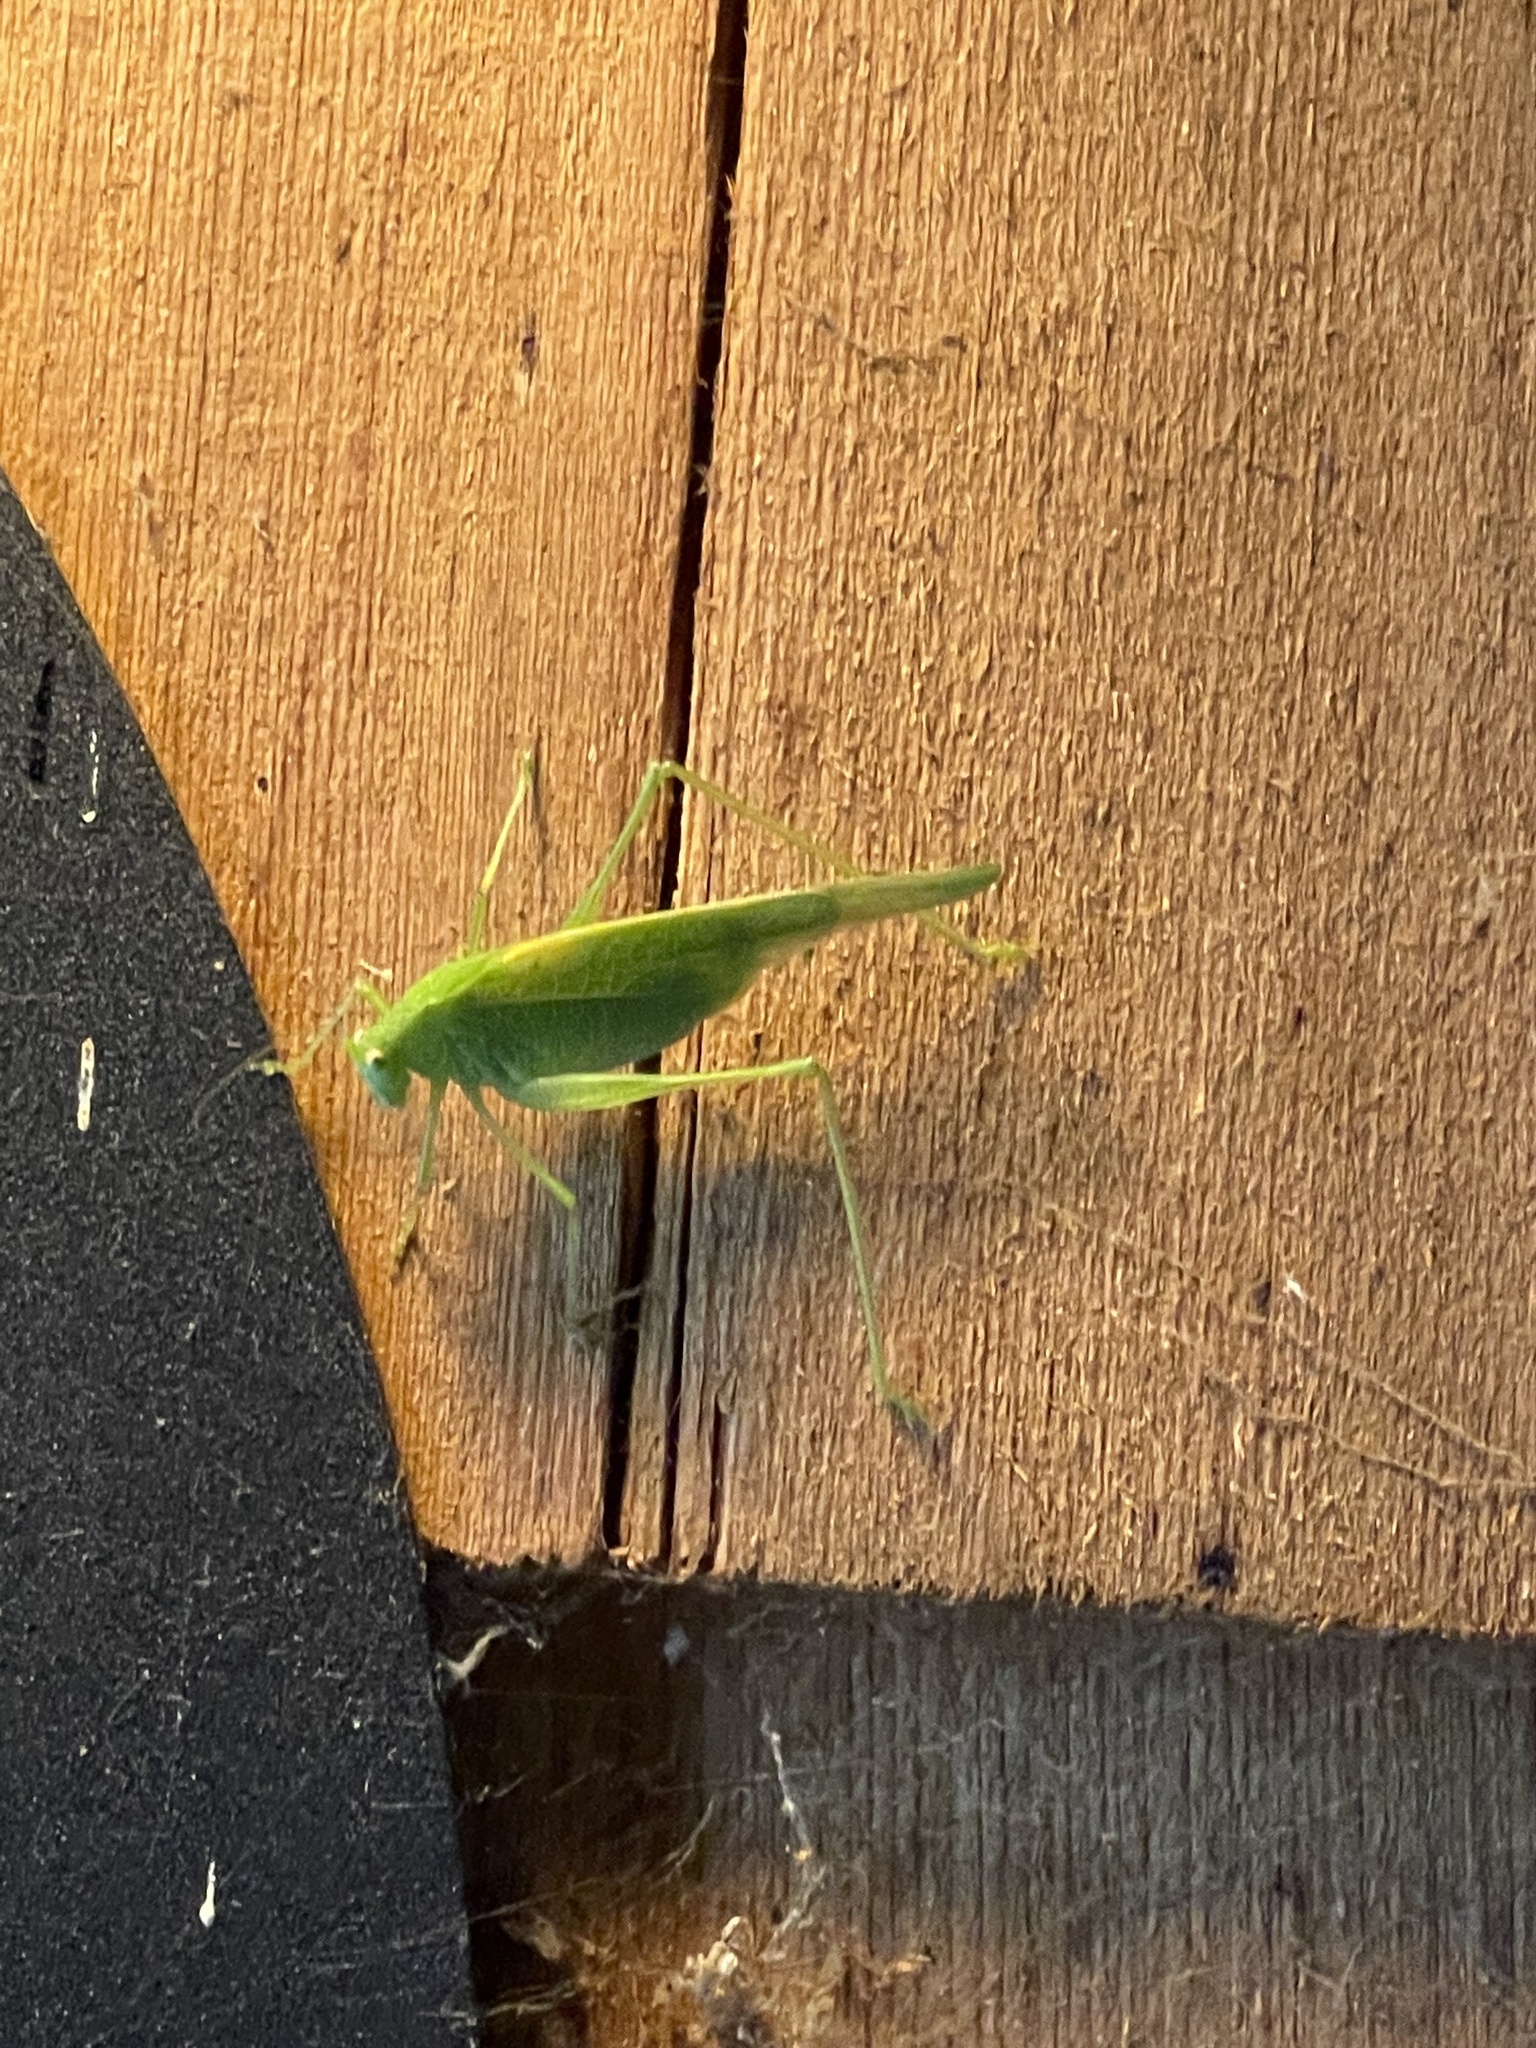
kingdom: Animalia
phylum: Arthropoda
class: Insecta
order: Orthoptera
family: Tettigoniidae
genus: Phaneroptera
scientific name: Phaneroptera nana
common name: Southern sickle bush-cricket
